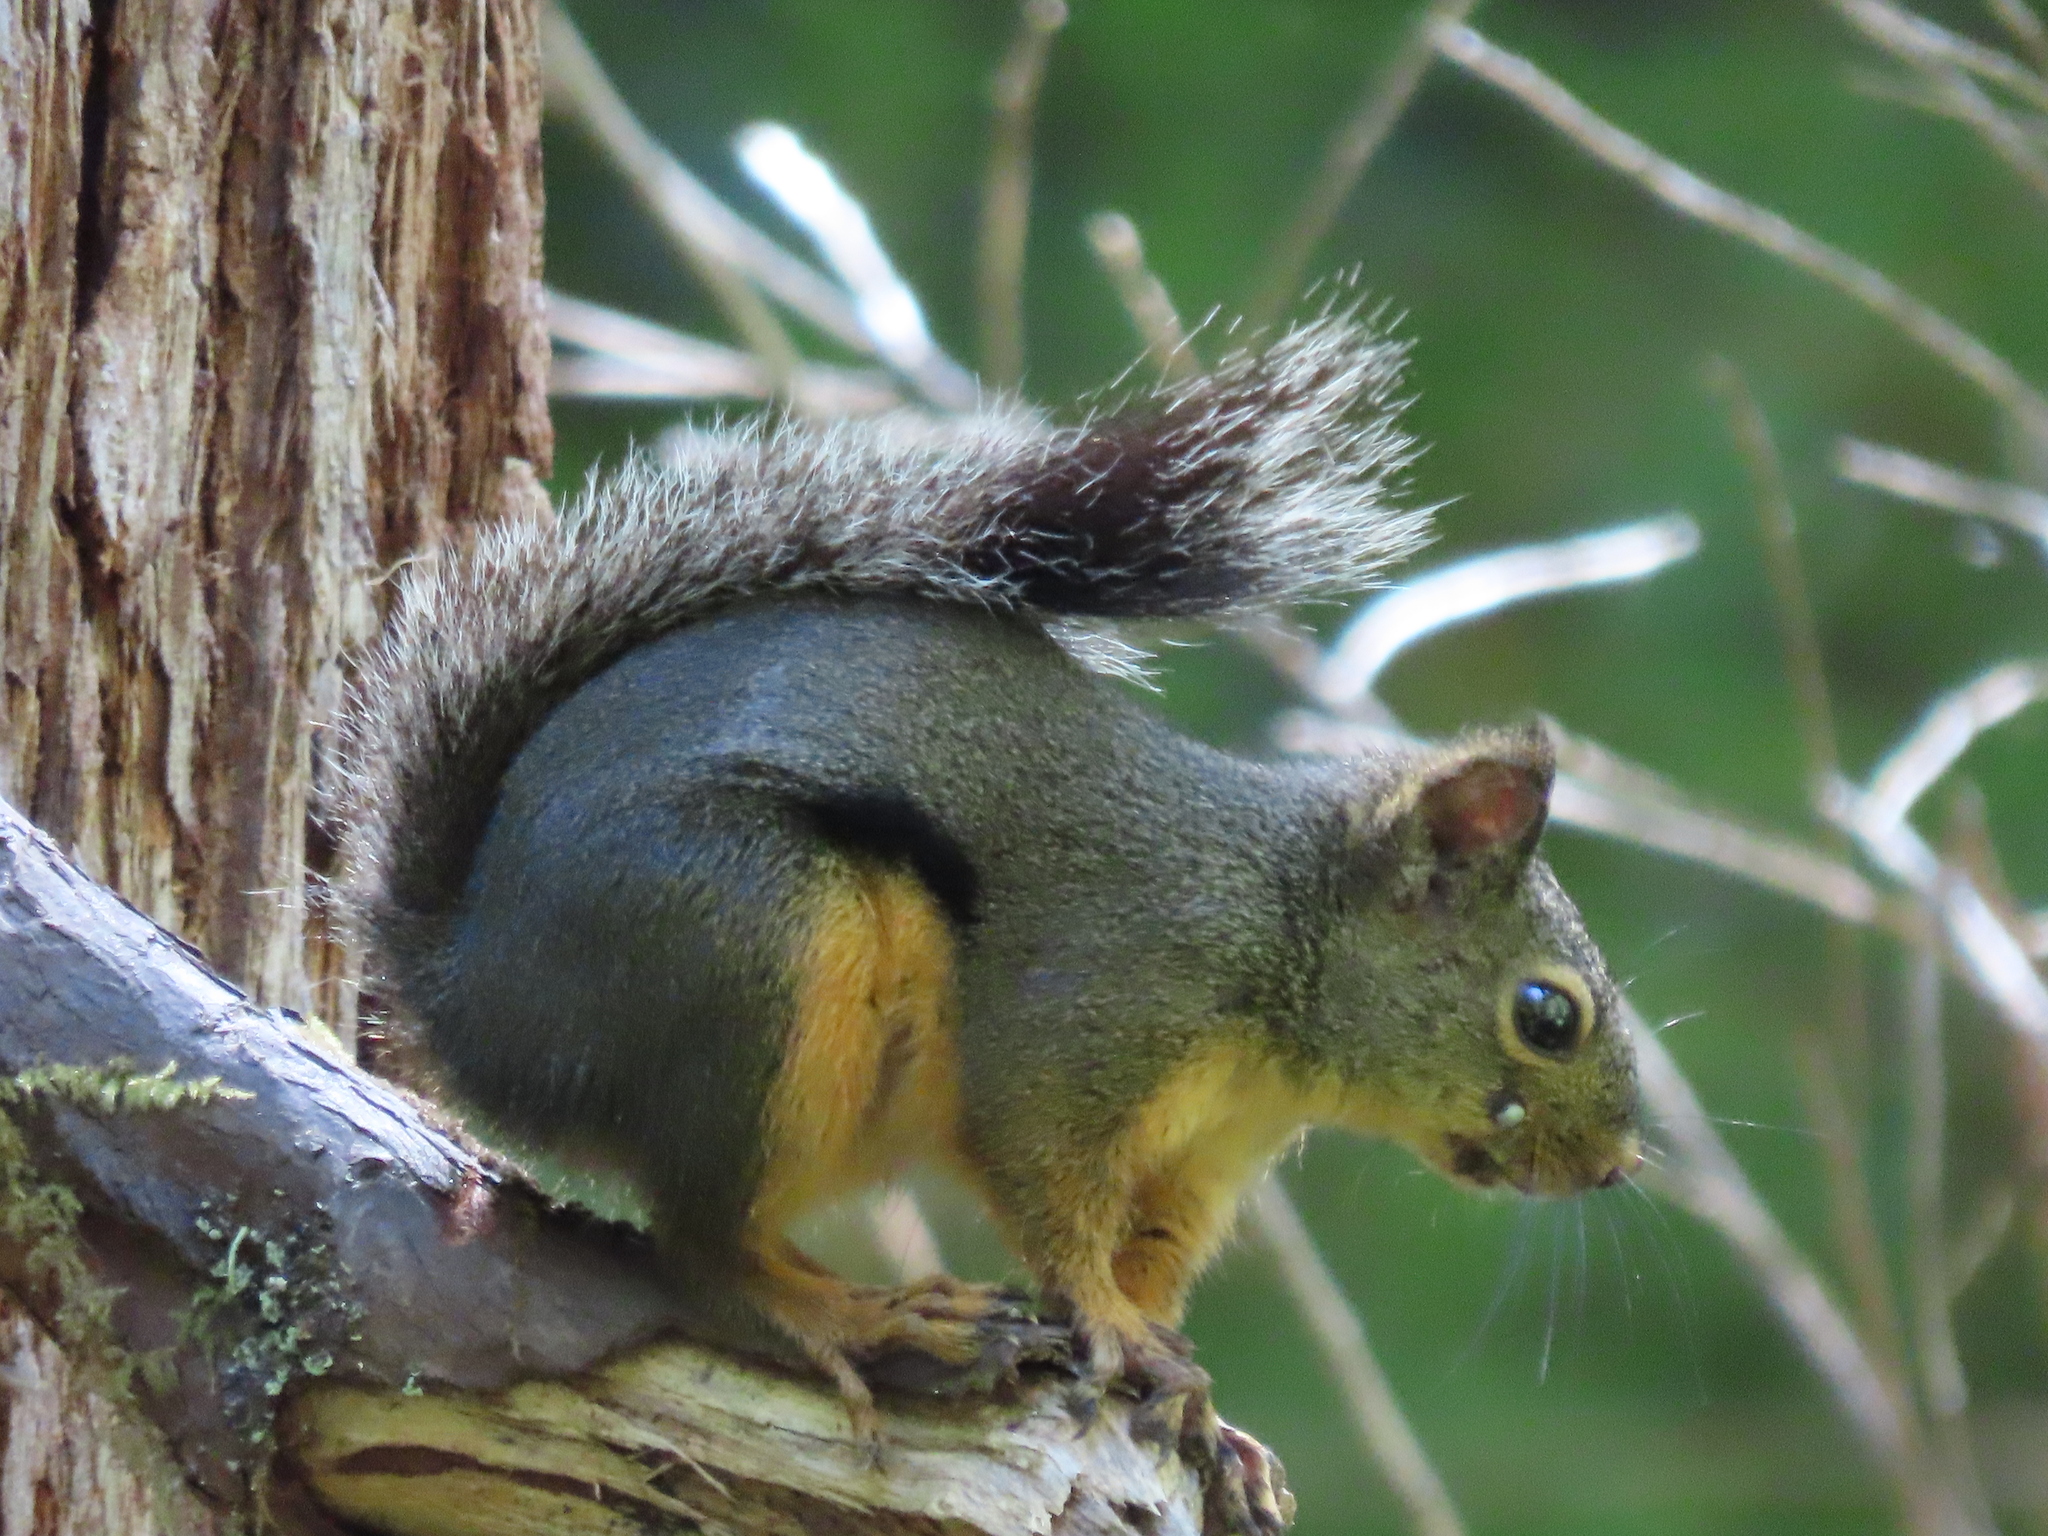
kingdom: Animalia
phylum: Chordata
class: Mammalia
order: Rodentia
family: Sciuridae
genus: Tamiasciurus
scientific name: Tamiasciurus douglasii
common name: Douglas's squirrel
